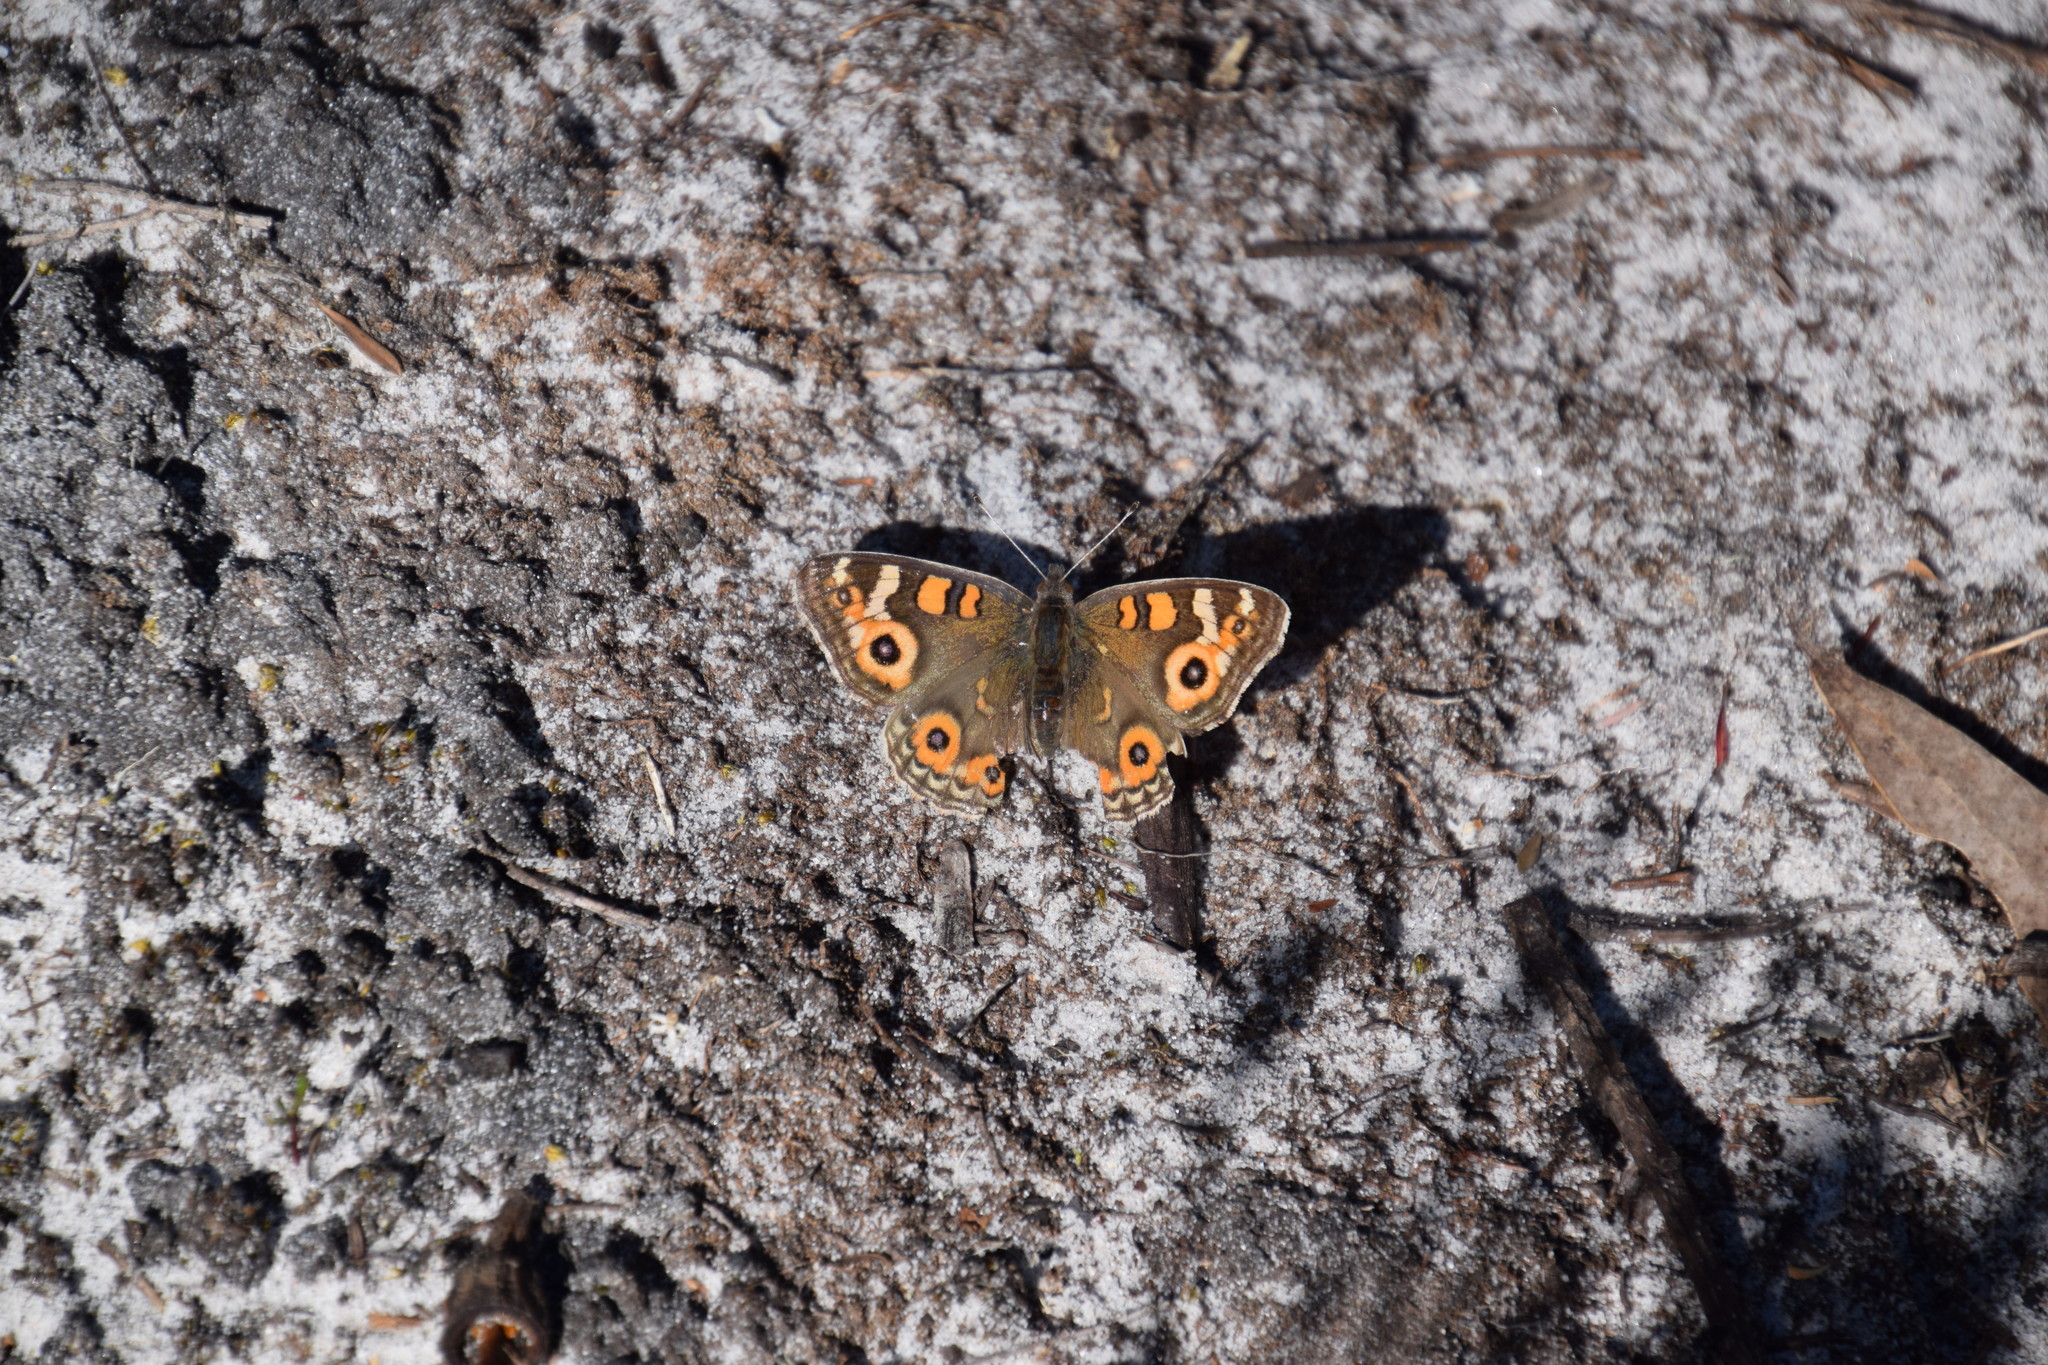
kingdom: Animalia
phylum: Arthropoda
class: Insecta
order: Lepidoptera
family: Nymphalidae
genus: Junonia
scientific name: Junonia villida
